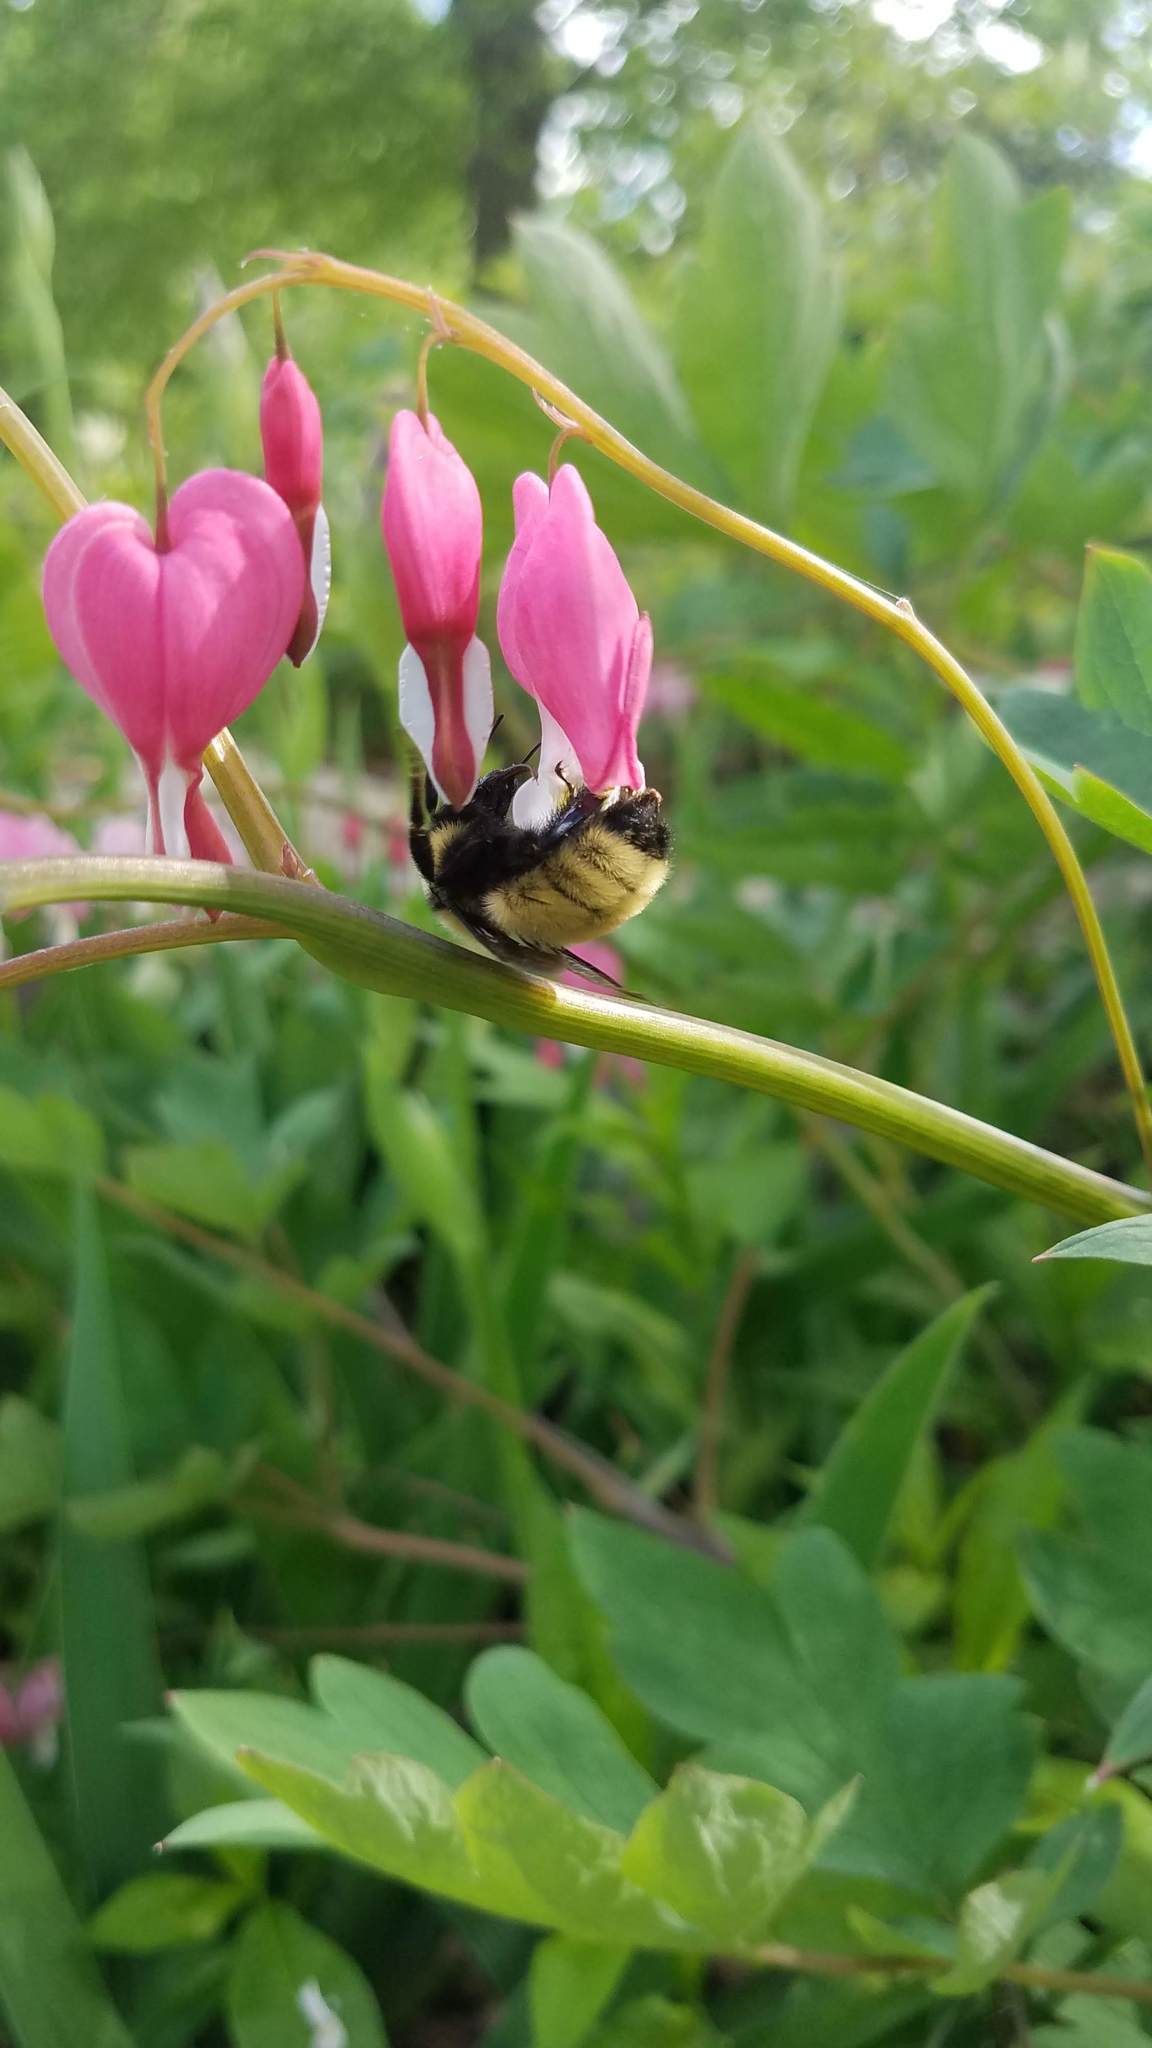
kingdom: Animalia
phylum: Arthropoda
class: Insecta
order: Hymenoptera
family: Apidae
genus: Bombus
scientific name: Bombus fervidus
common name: Yellow bumble bee
